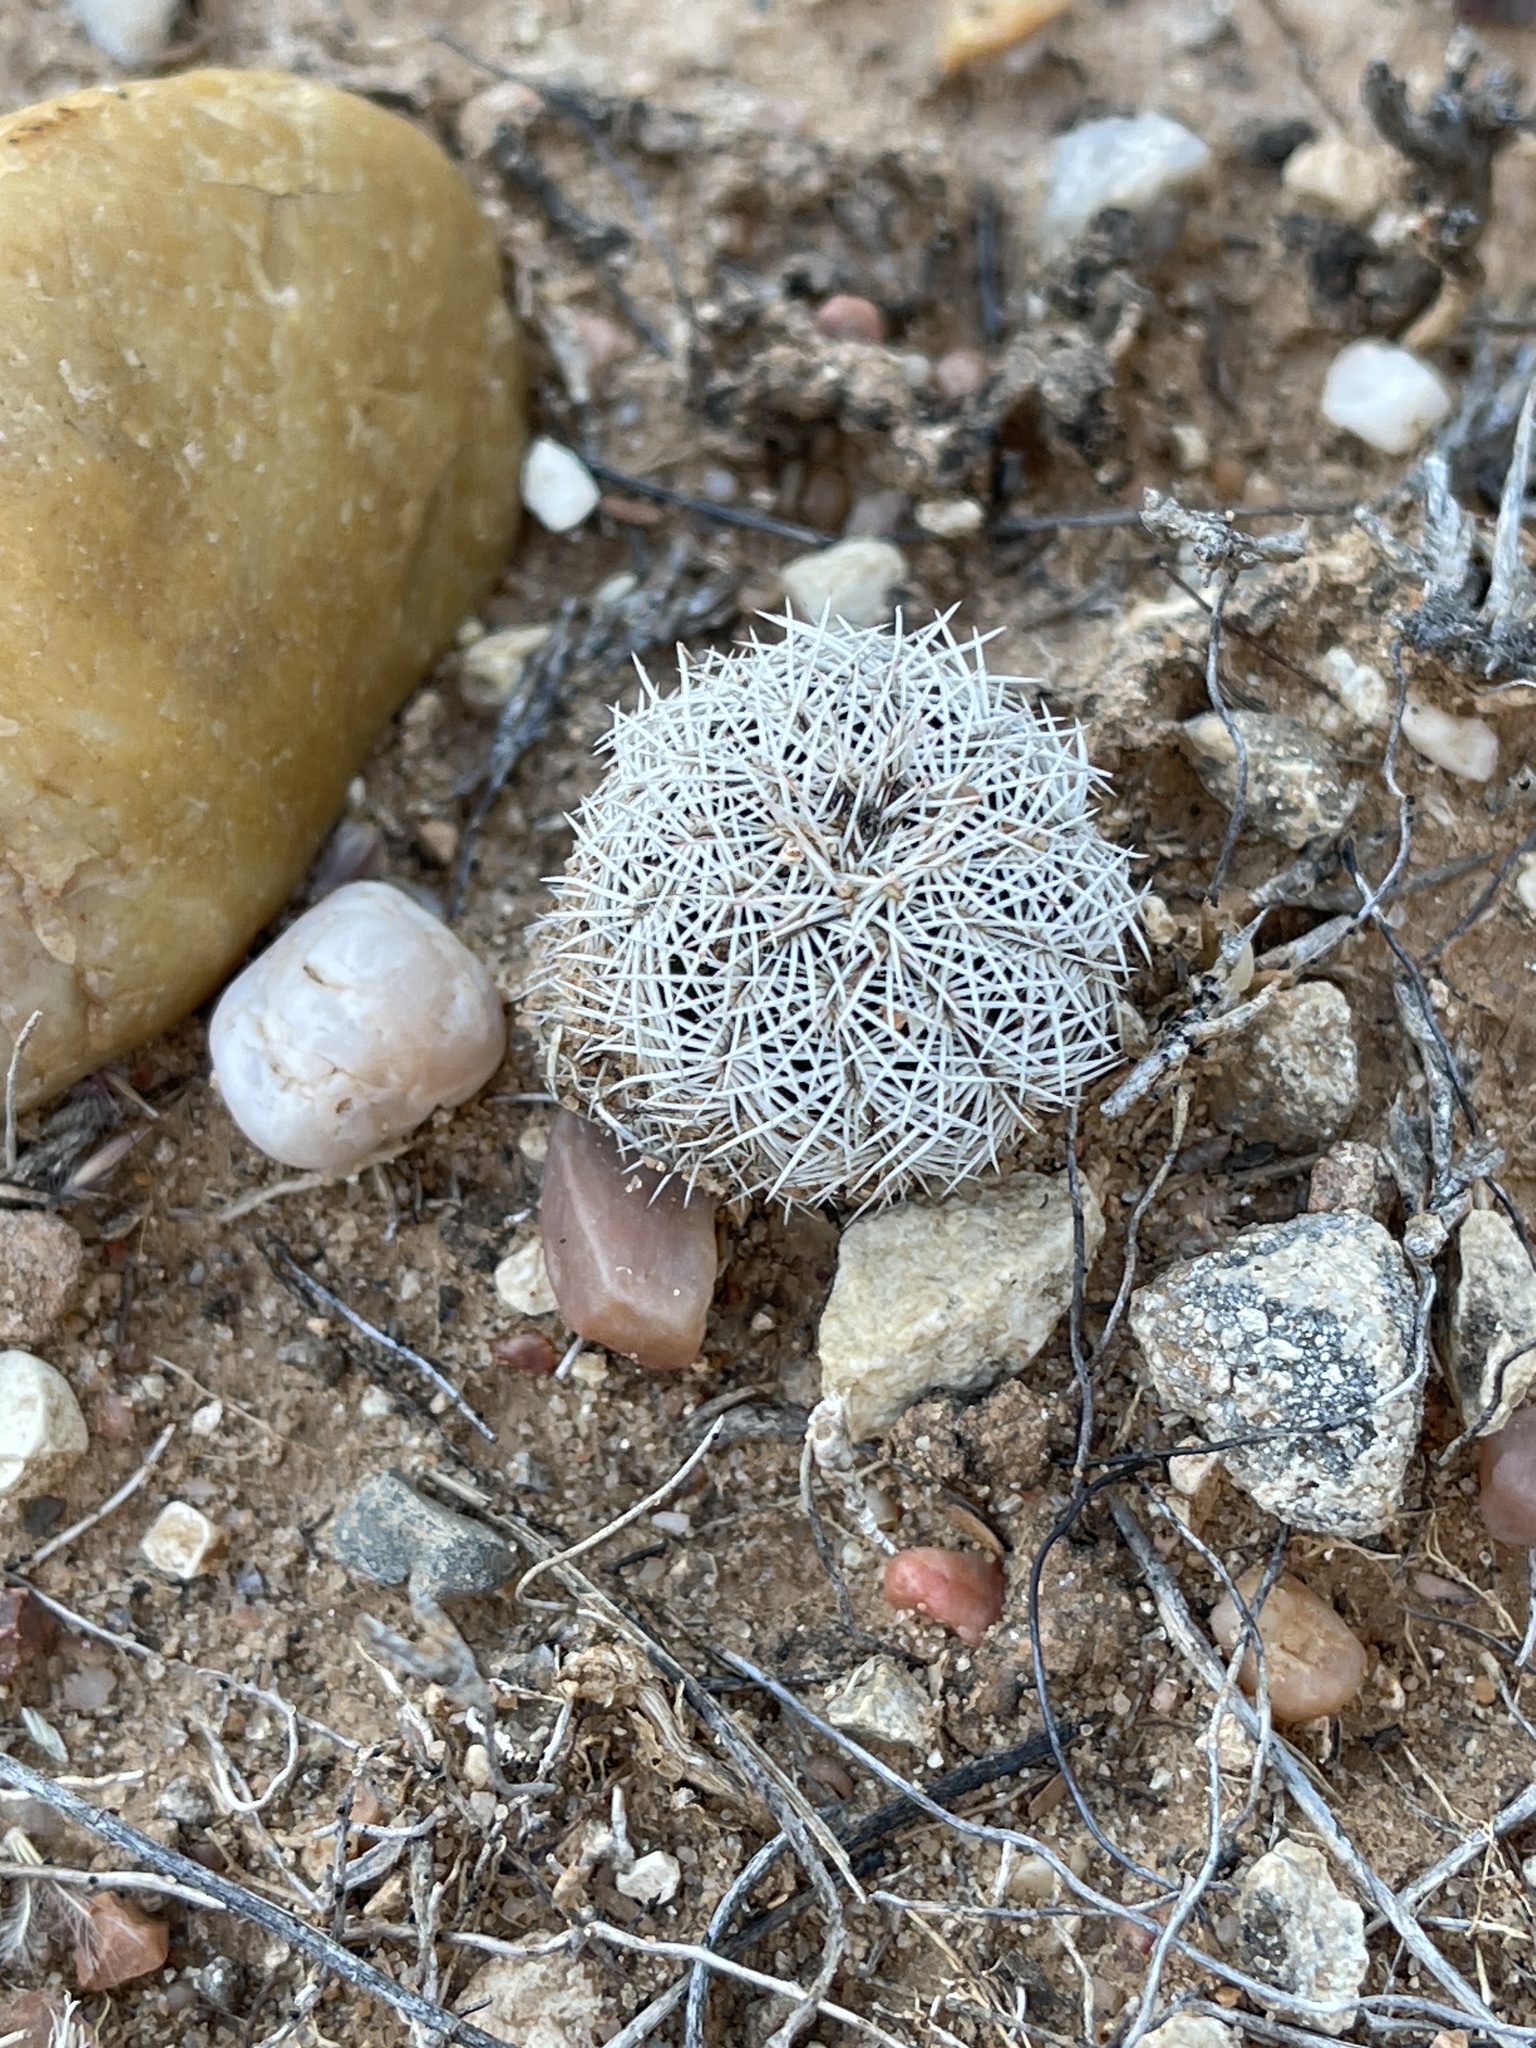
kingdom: Plantae
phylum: Tracheophyta
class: Magnoliopsida
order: Caryophyllales
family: Cactaceae
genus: Echinocereus
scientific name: Echinocereus reichenbachii
